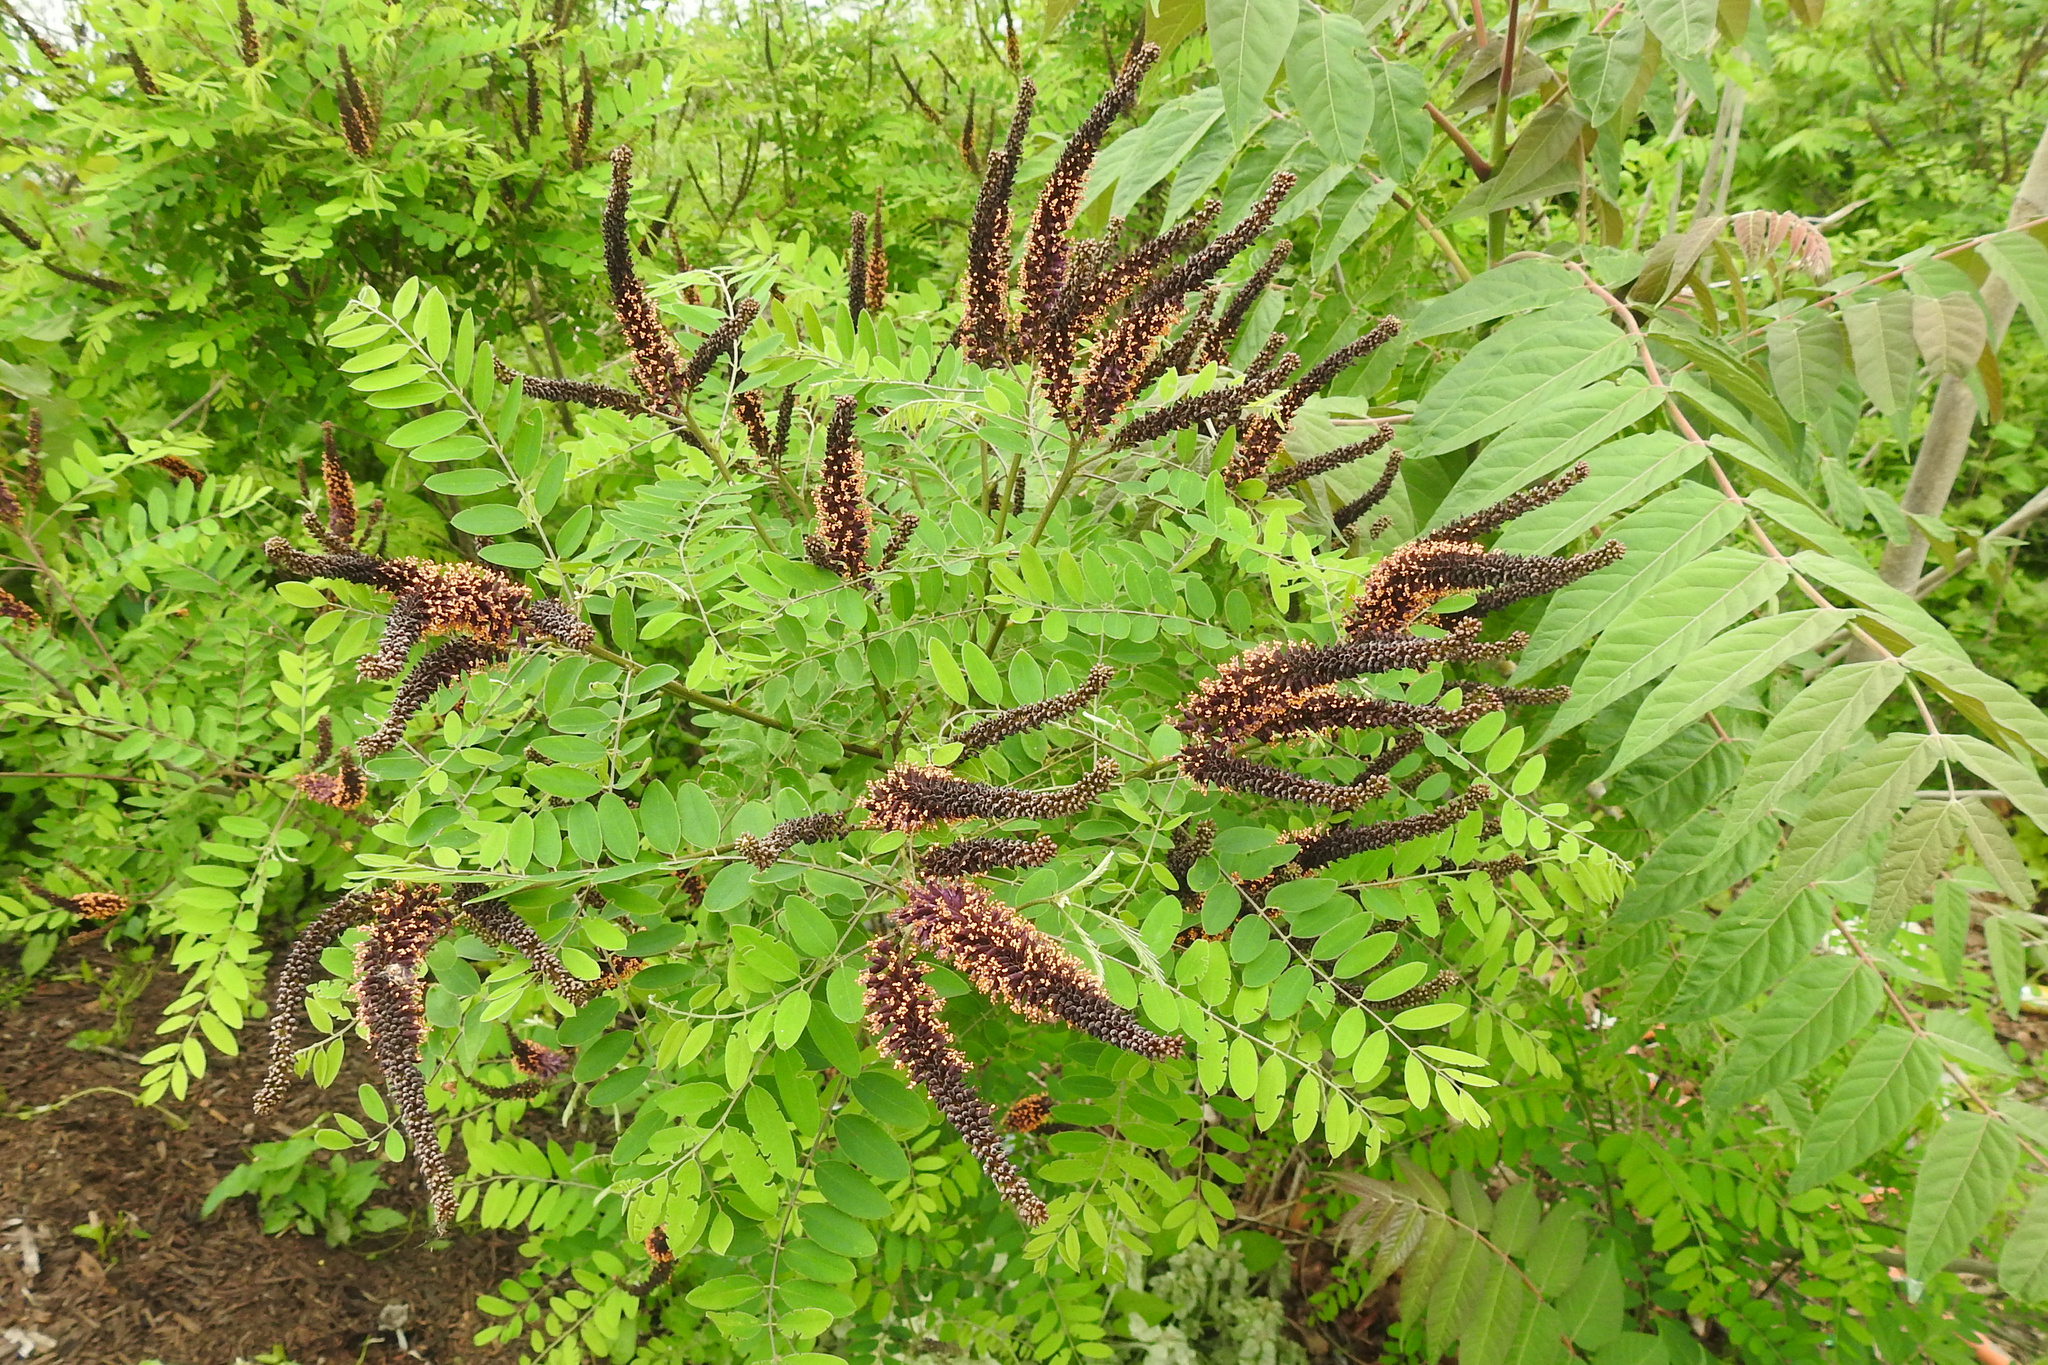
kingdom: Plantae
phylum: Tracheophyta
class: Magnoliopsida
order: Fabales
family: Fabaceae
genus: Amorpha
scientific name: Amorpha fruticosa
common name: False indigo
